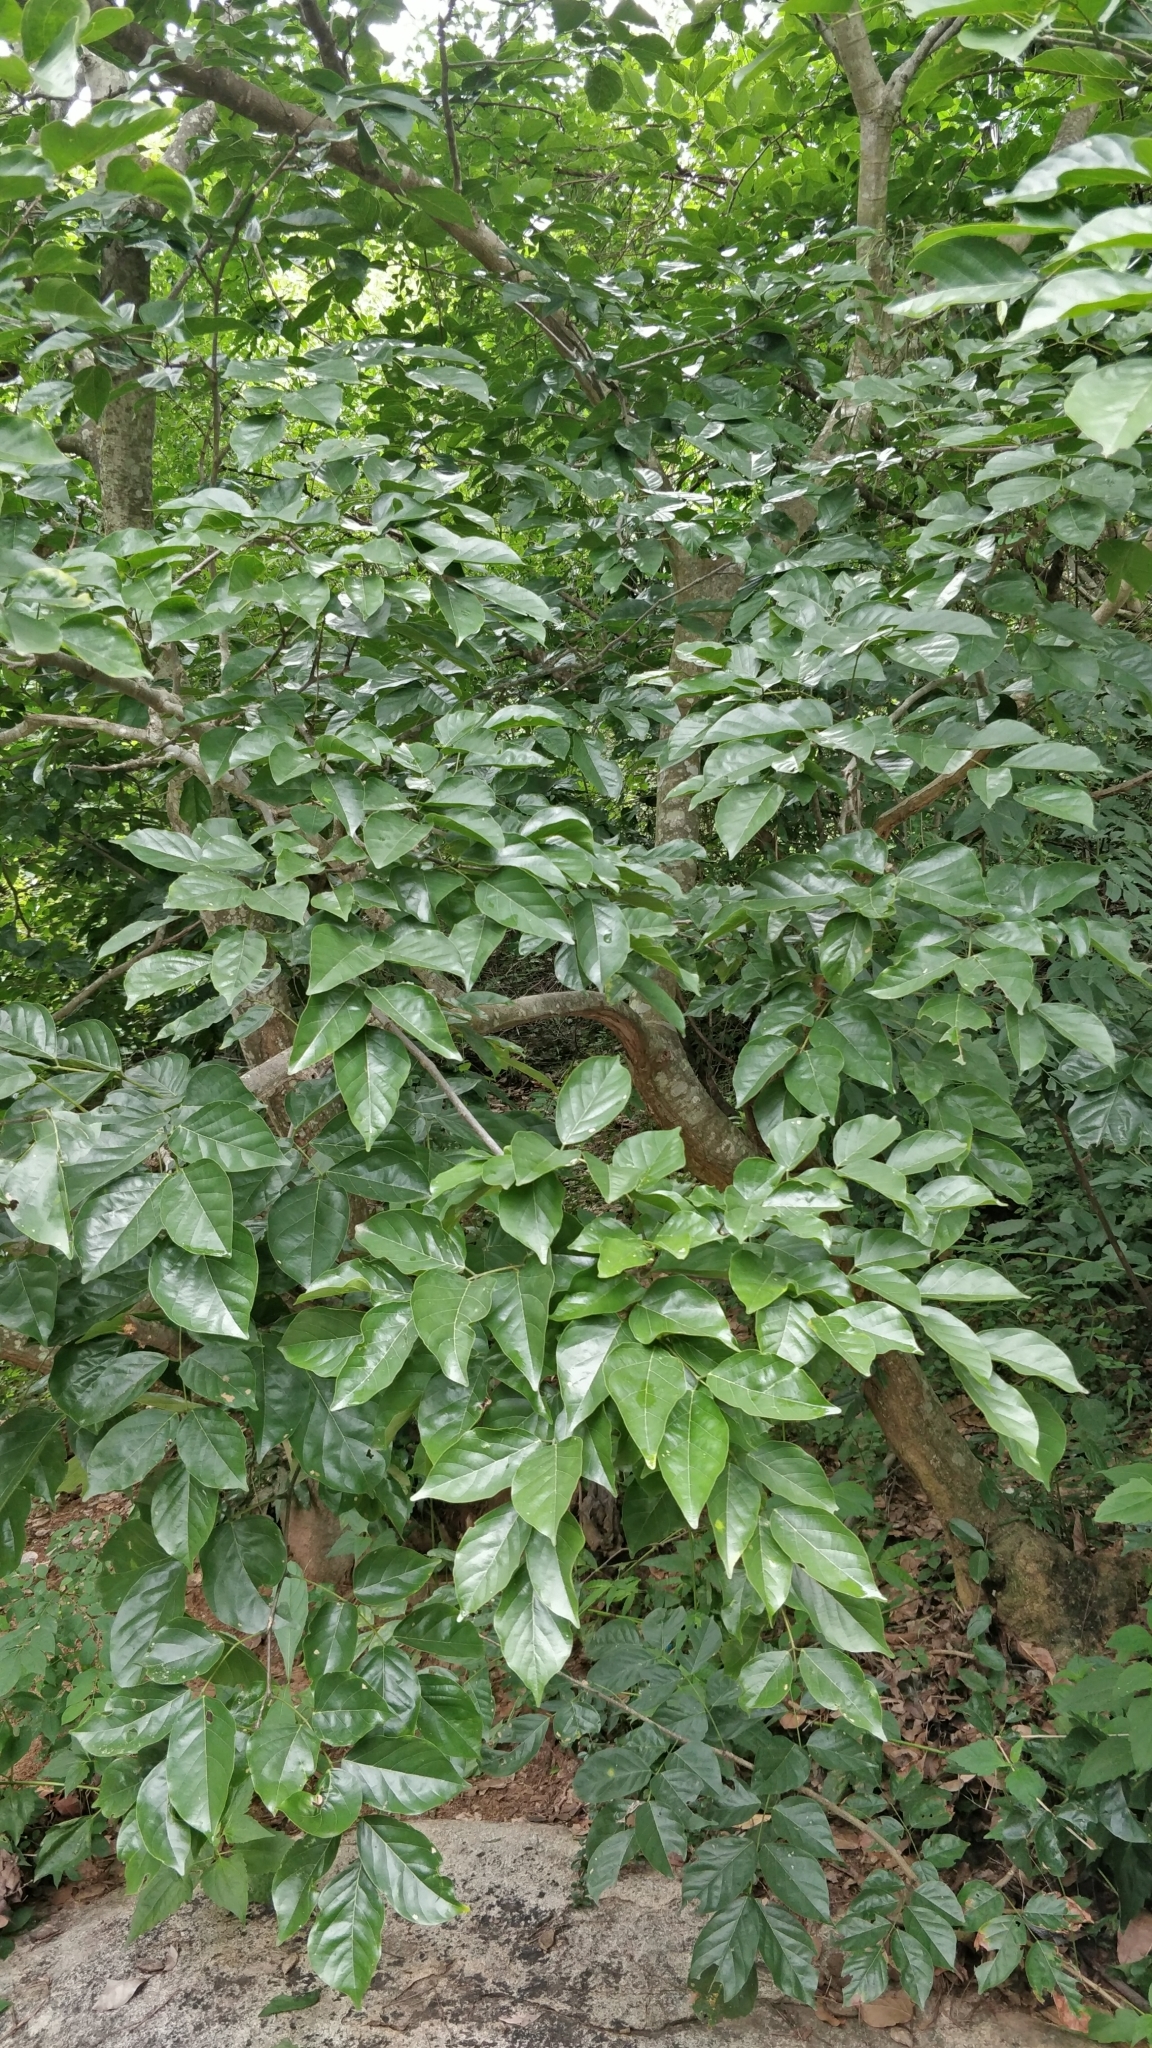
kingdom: Plantae
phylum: Tracheophyta
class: Magnoliopsida
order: Fabales
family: Fabaceae
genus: Pongamia
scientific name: Pongamia pinnata
